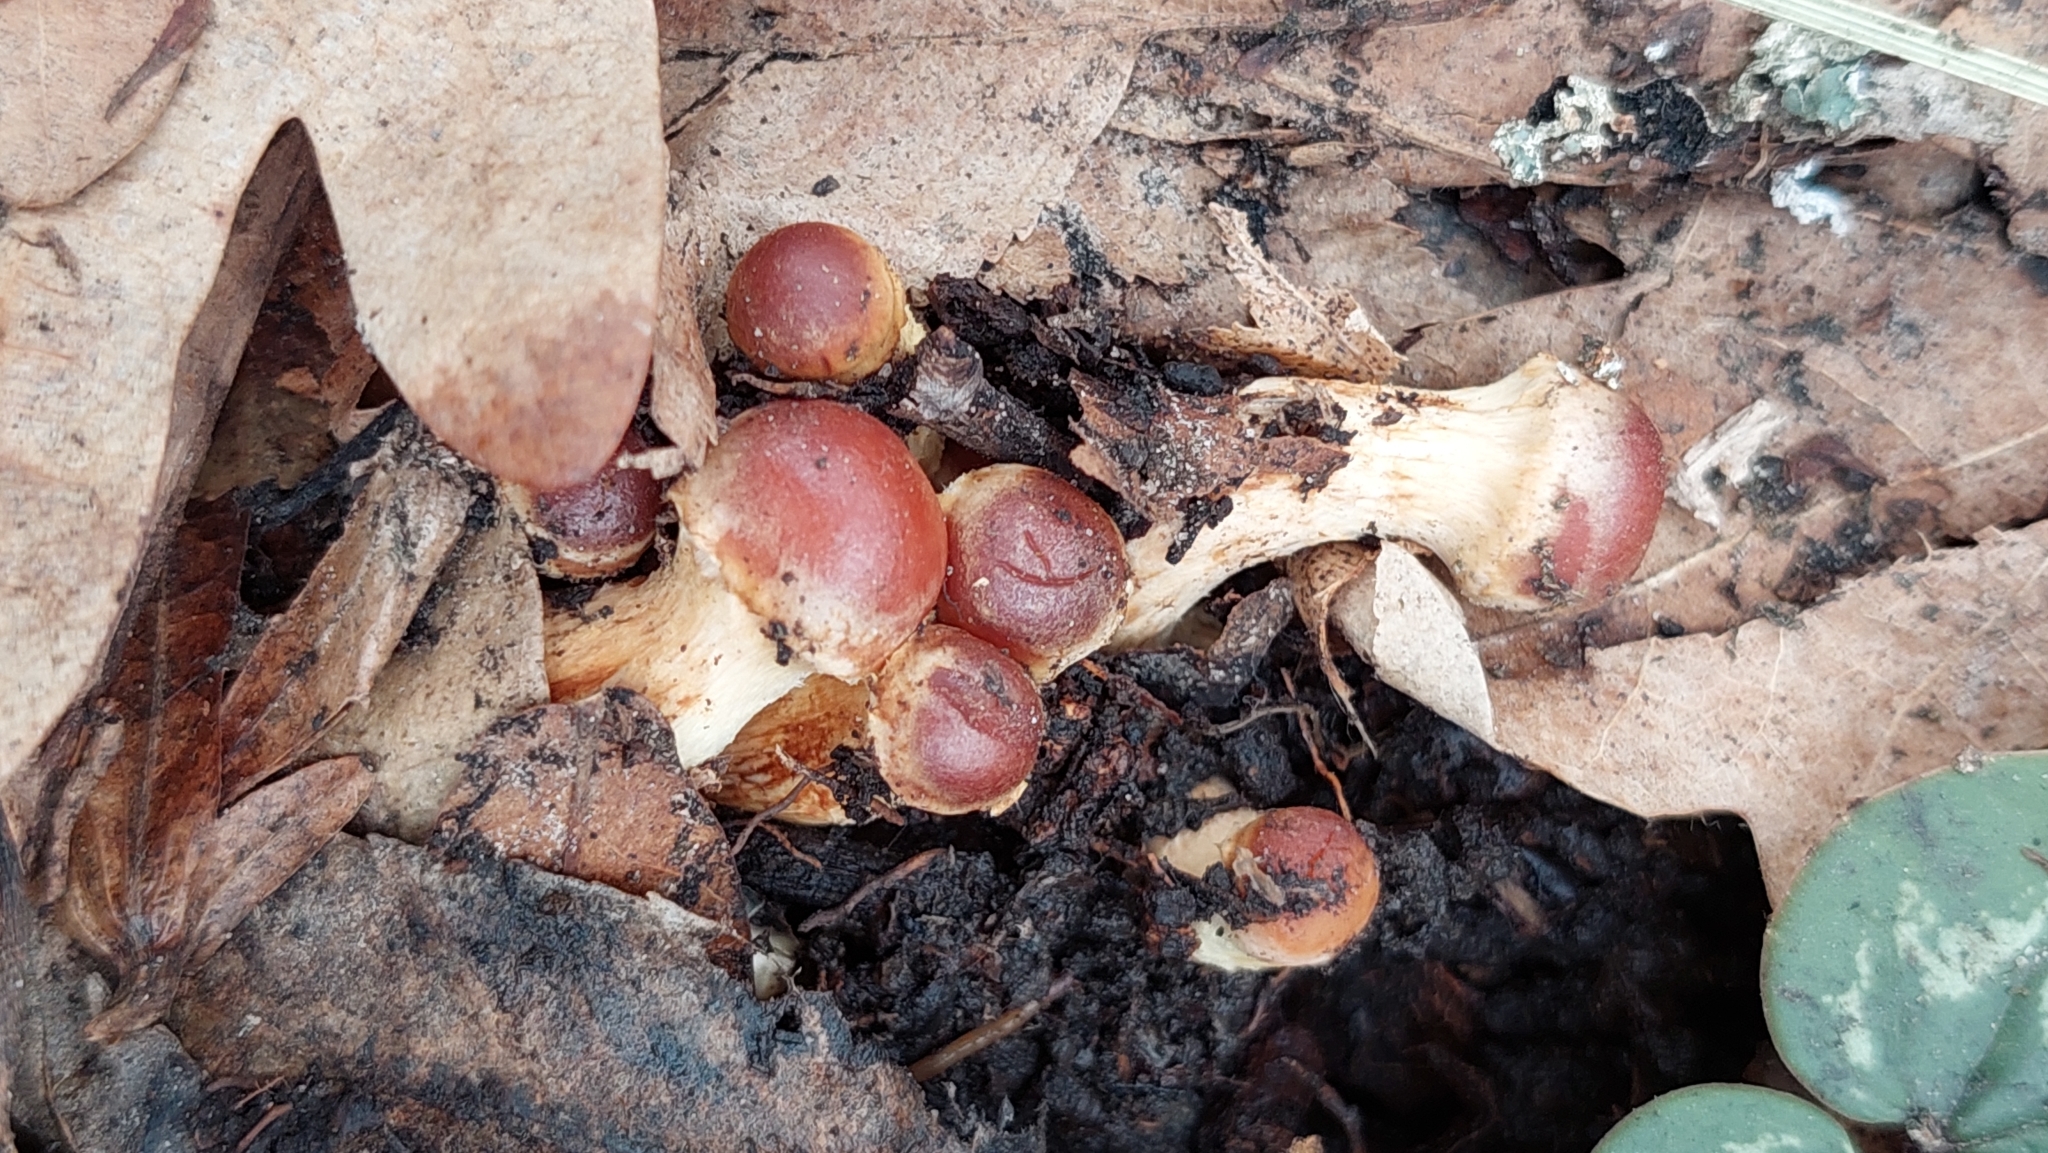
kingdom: Fungi
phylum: Basidiomycota
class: Agaricomycetes
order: Agaricales
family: Strophariaceae
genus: Hypholoma
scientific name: Hypholoma lateritium
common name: Brick caps
